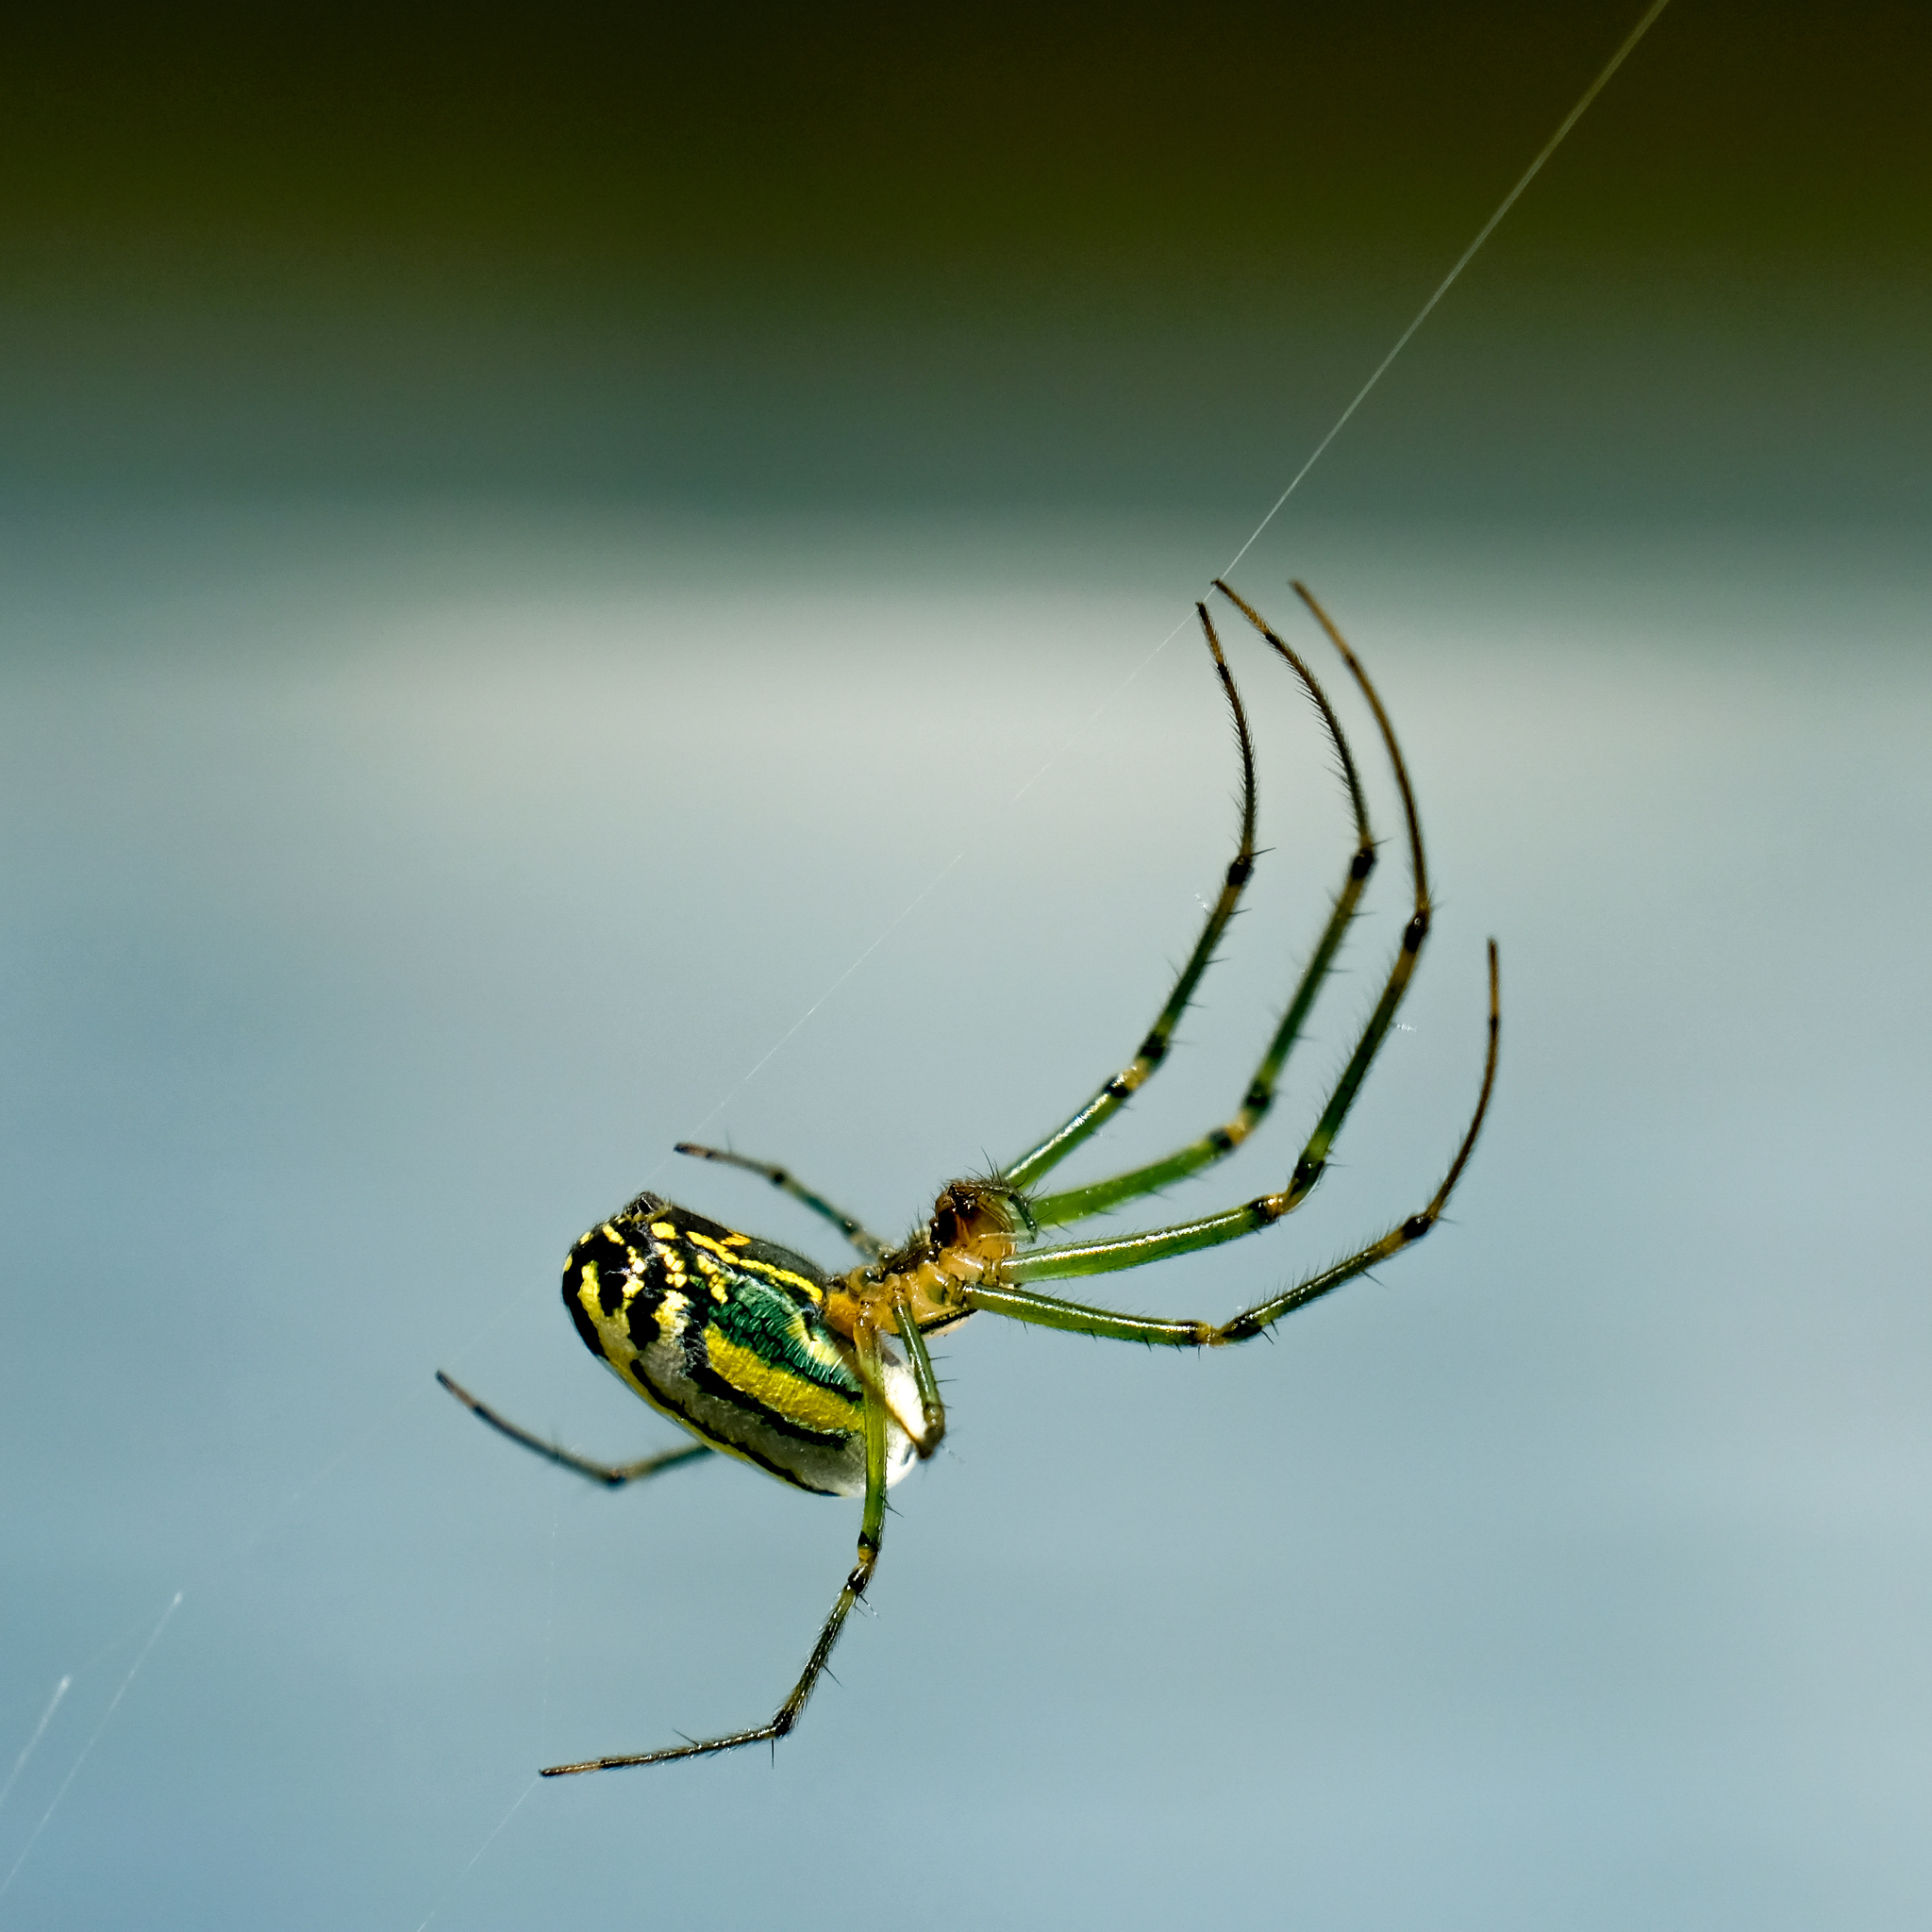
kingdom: Animalia
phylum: Arthropoda
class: Arachnida
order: Araneae
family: Tetragnathidae
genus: Leucauge
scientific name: Leucauge venusta
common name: Longjawed orb weavers
